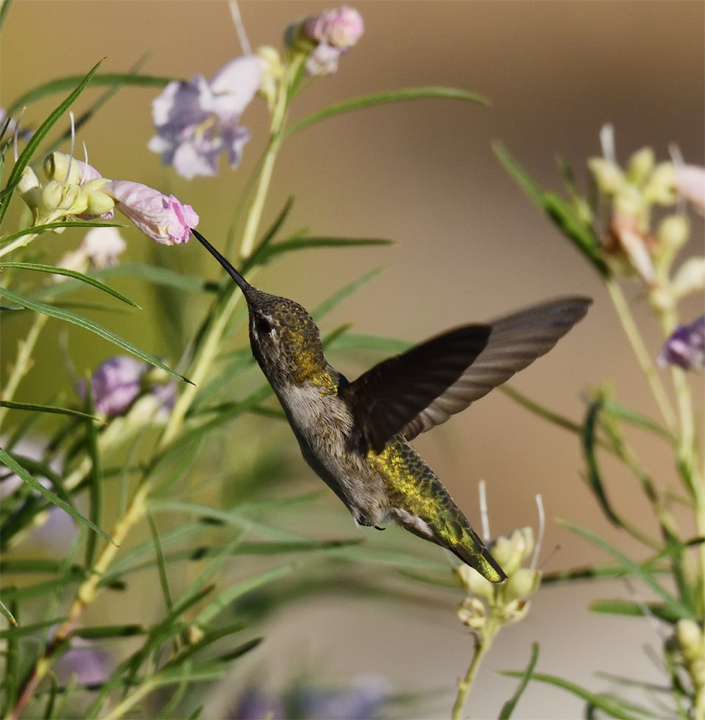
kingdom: Animalia
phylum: Chordata
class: Aves
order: Apodiformes
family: Trochilidae
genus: Calypte
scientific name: Calypte anna
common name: Anna's hummingbird
